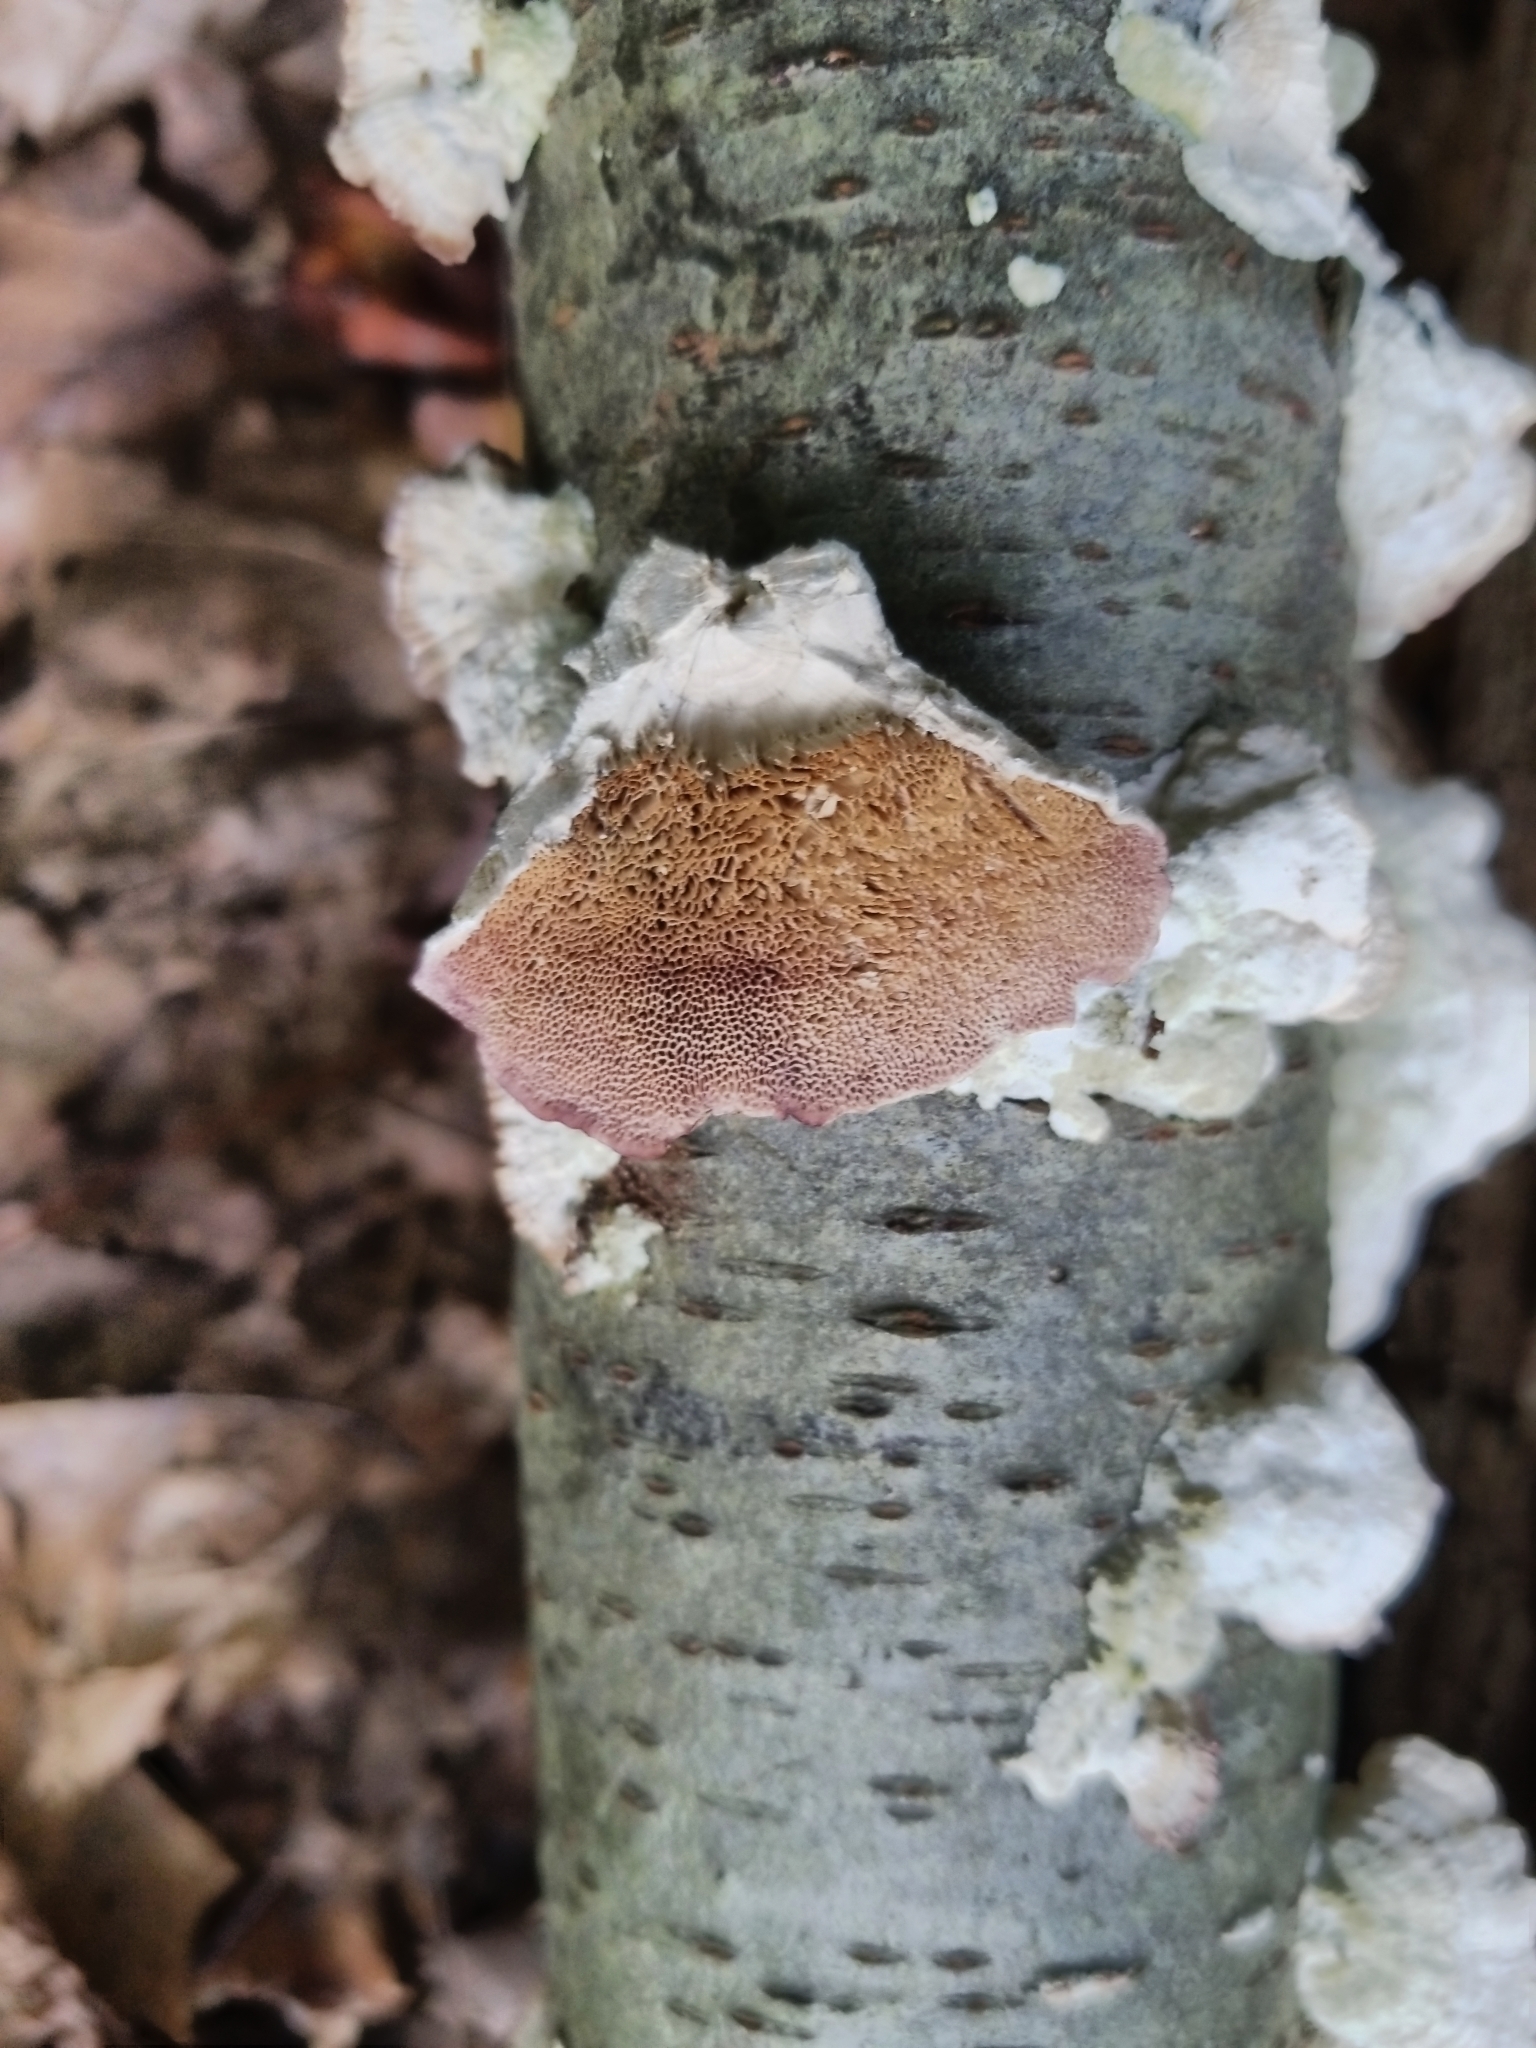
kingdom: Fungi
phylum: Basidiomycota
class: Agaricomycetes
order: Hymenochaetales
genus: Trichaptum
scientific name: Trichaptum biforme
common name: Violet-toothed polypore
